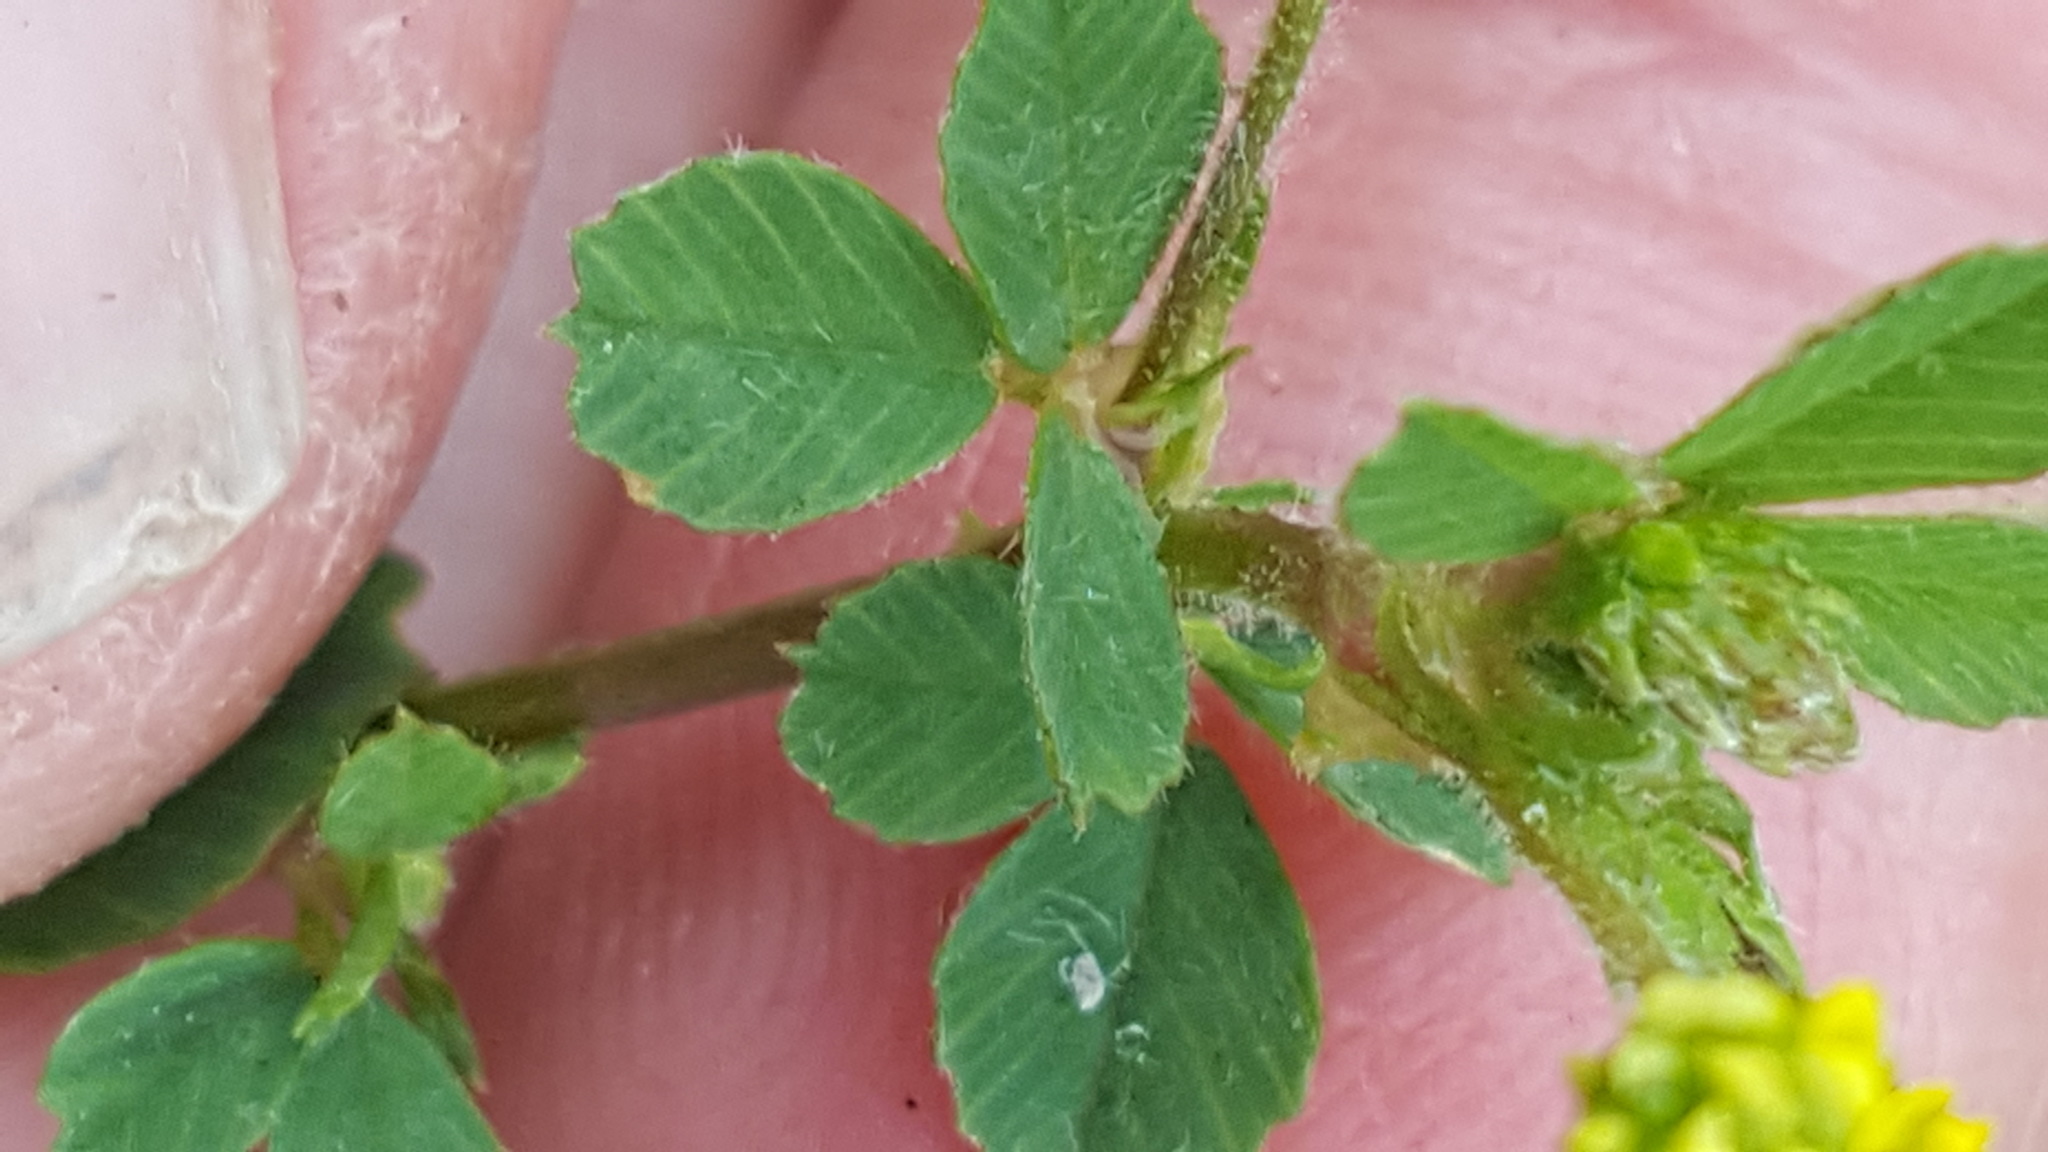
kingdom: Plantae
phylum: Tracheophyta
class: Magnoliopsida
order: Fabales
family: Fabaceae
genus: Medicago
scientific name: Medicago lupulina
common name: Black medick
